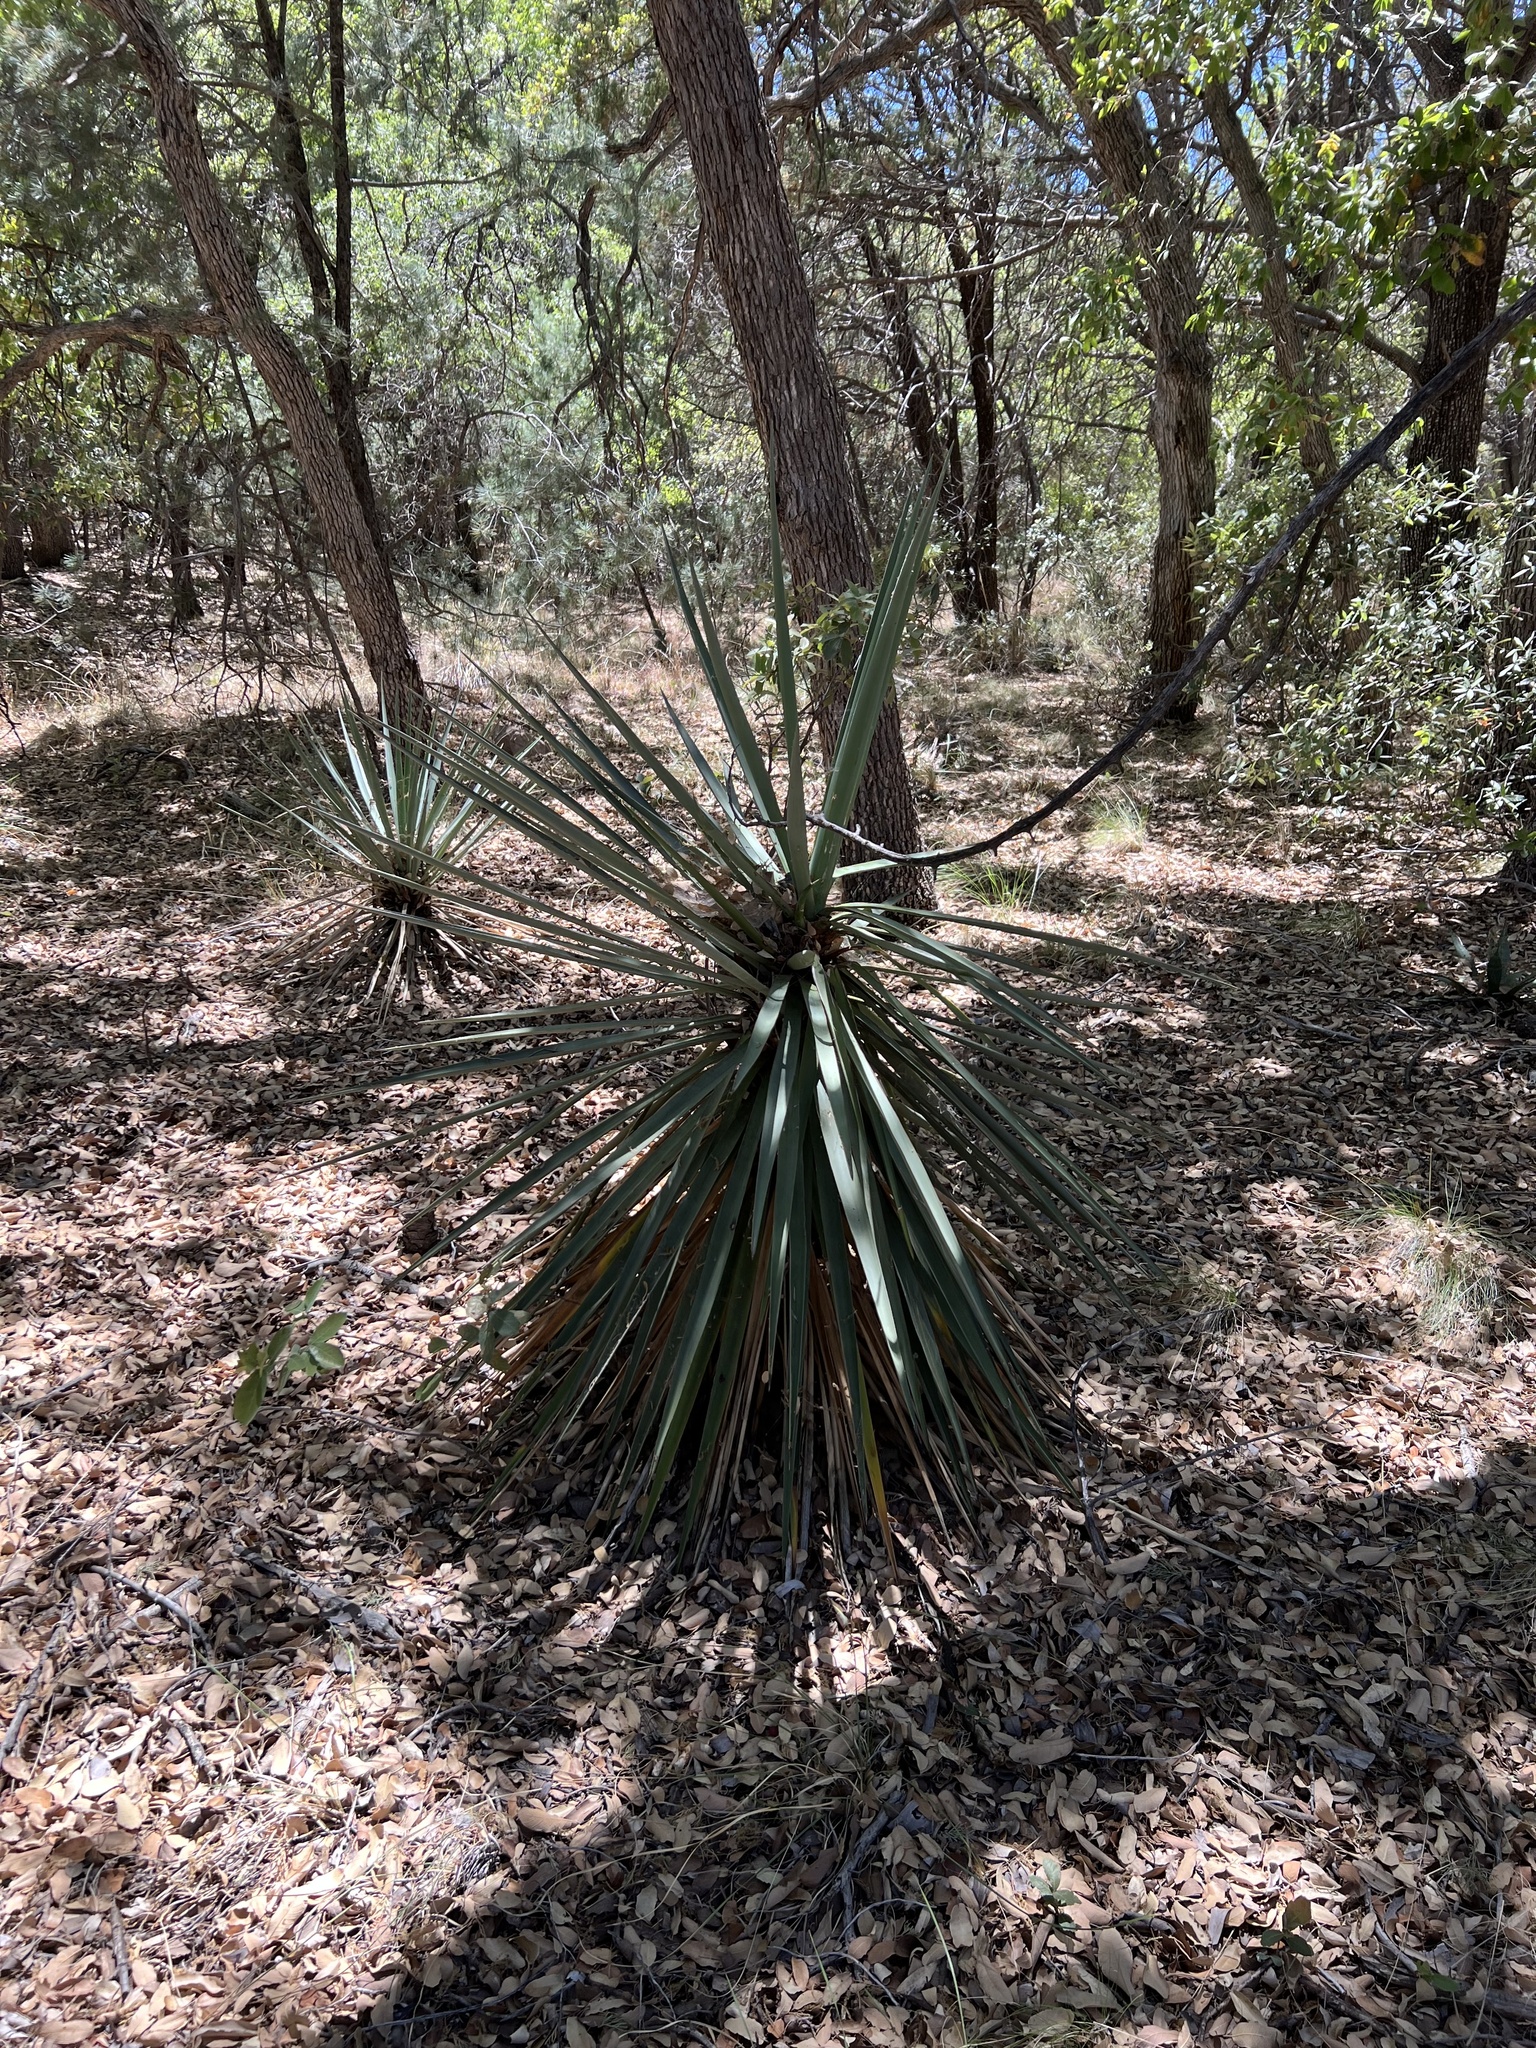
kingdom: Plantae
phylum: Tracheophyta
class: Liliopsida
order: Asparagales
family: Asparagaceae
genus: Yucca
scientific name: Yucca schottii
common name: Hoary yucca
